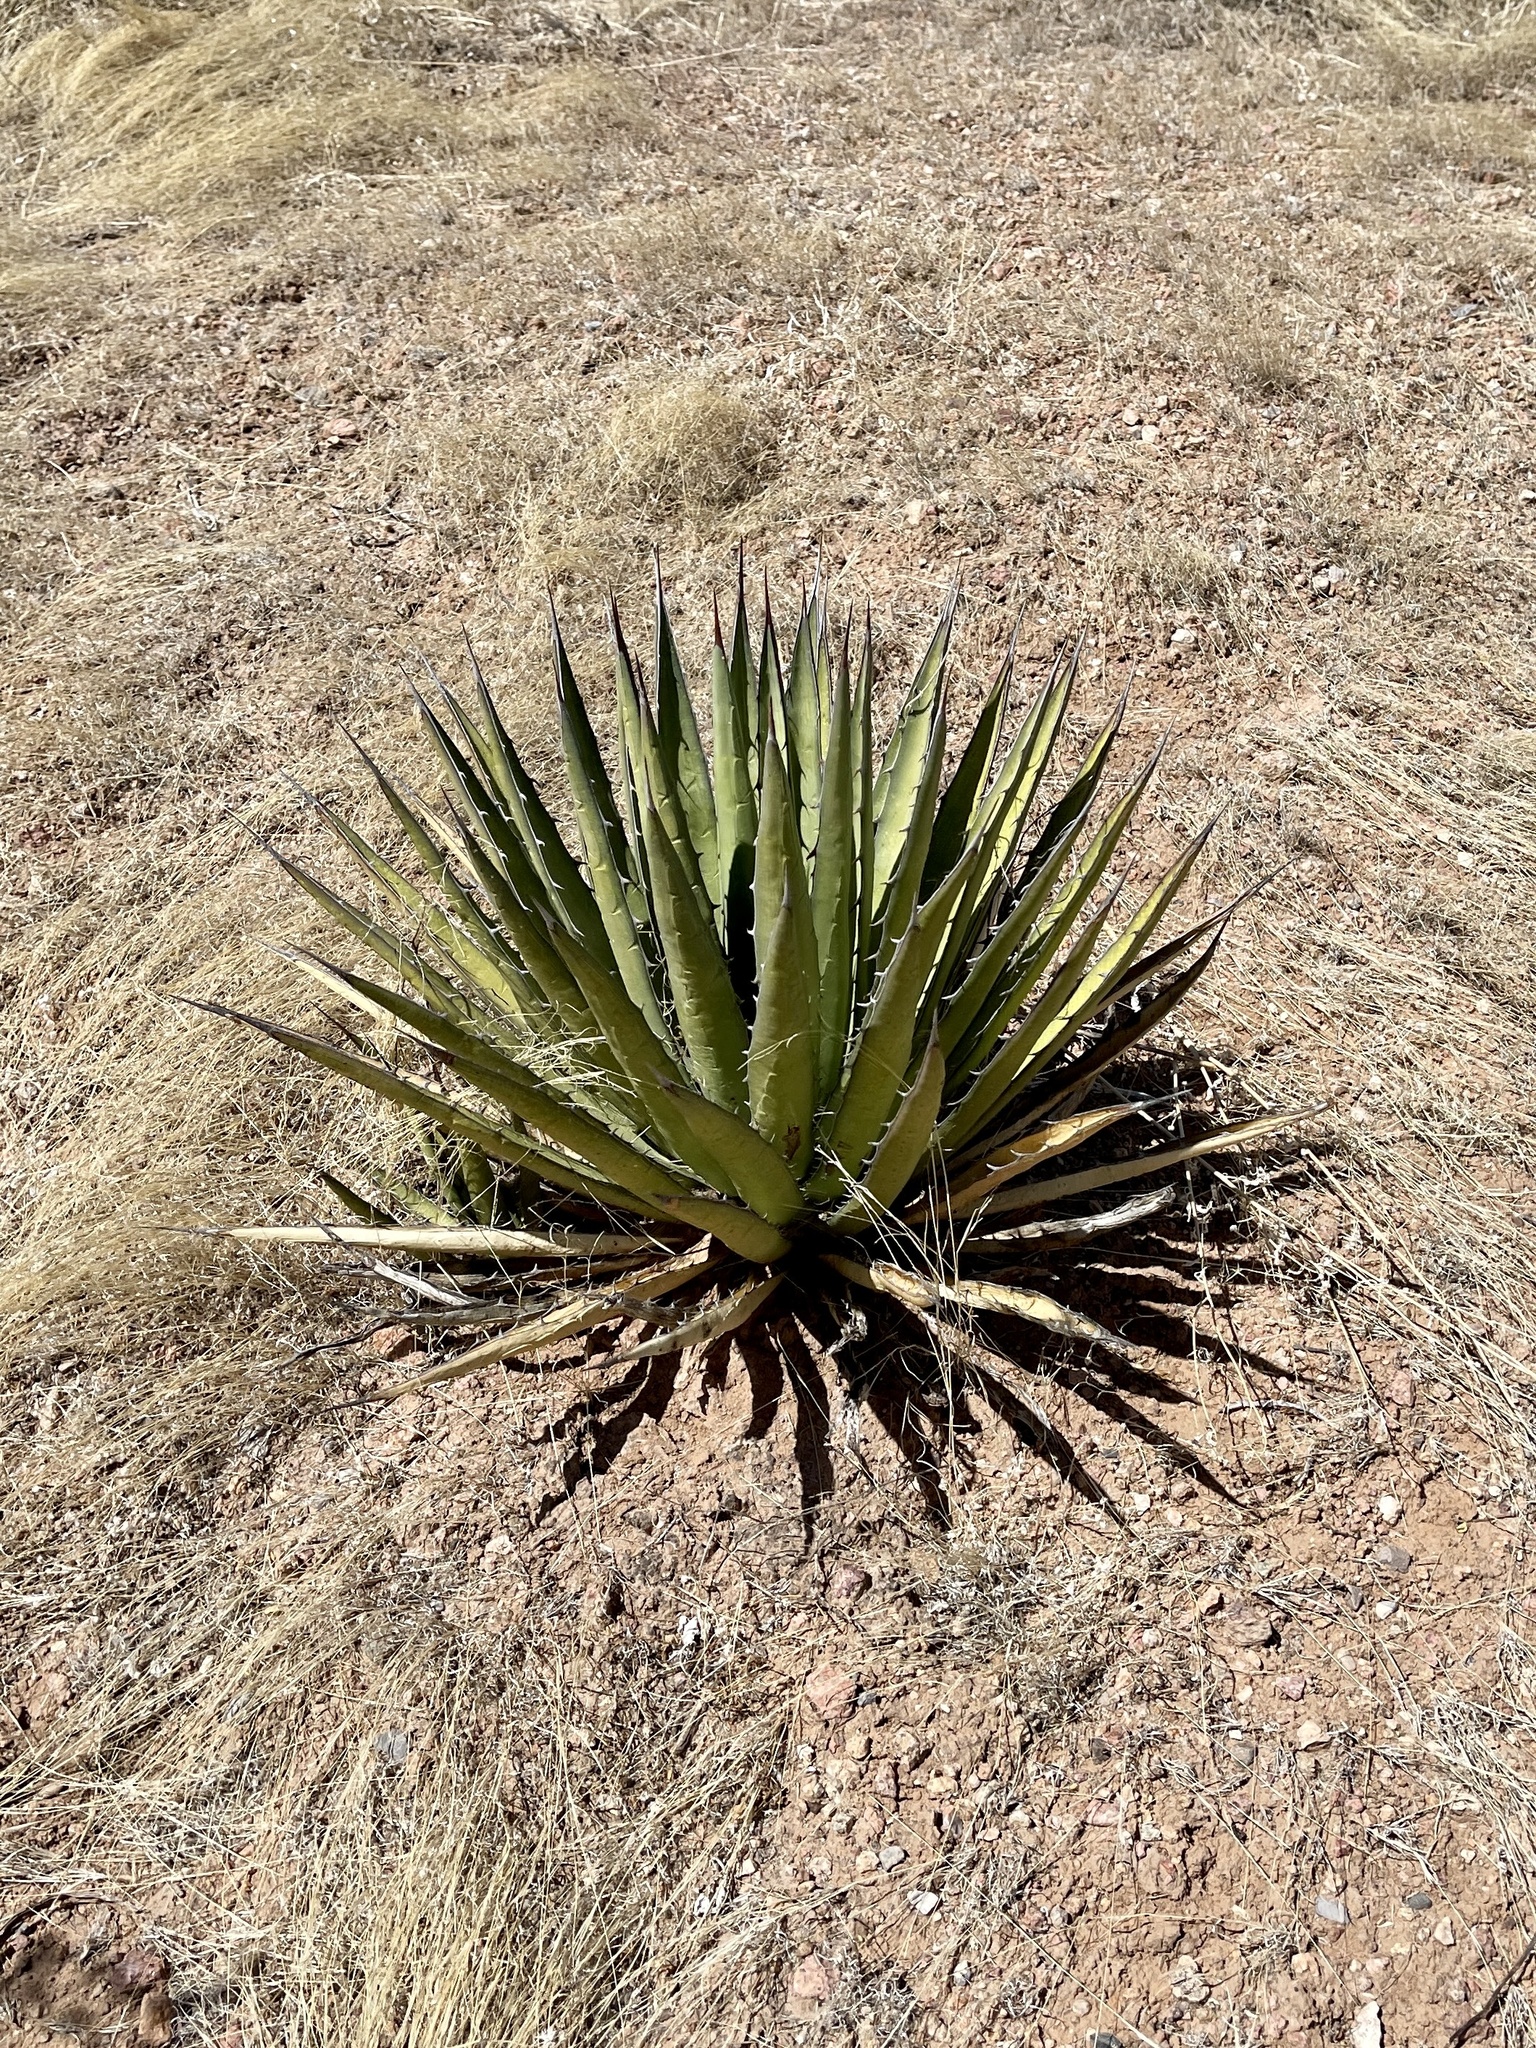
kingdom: Plantae
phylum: Tracheophyta
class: Liliopsida
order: Asparagales
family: Asparagaceae
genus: Agave
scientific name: Agave lechuguilla
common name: Lecheguilla agave
